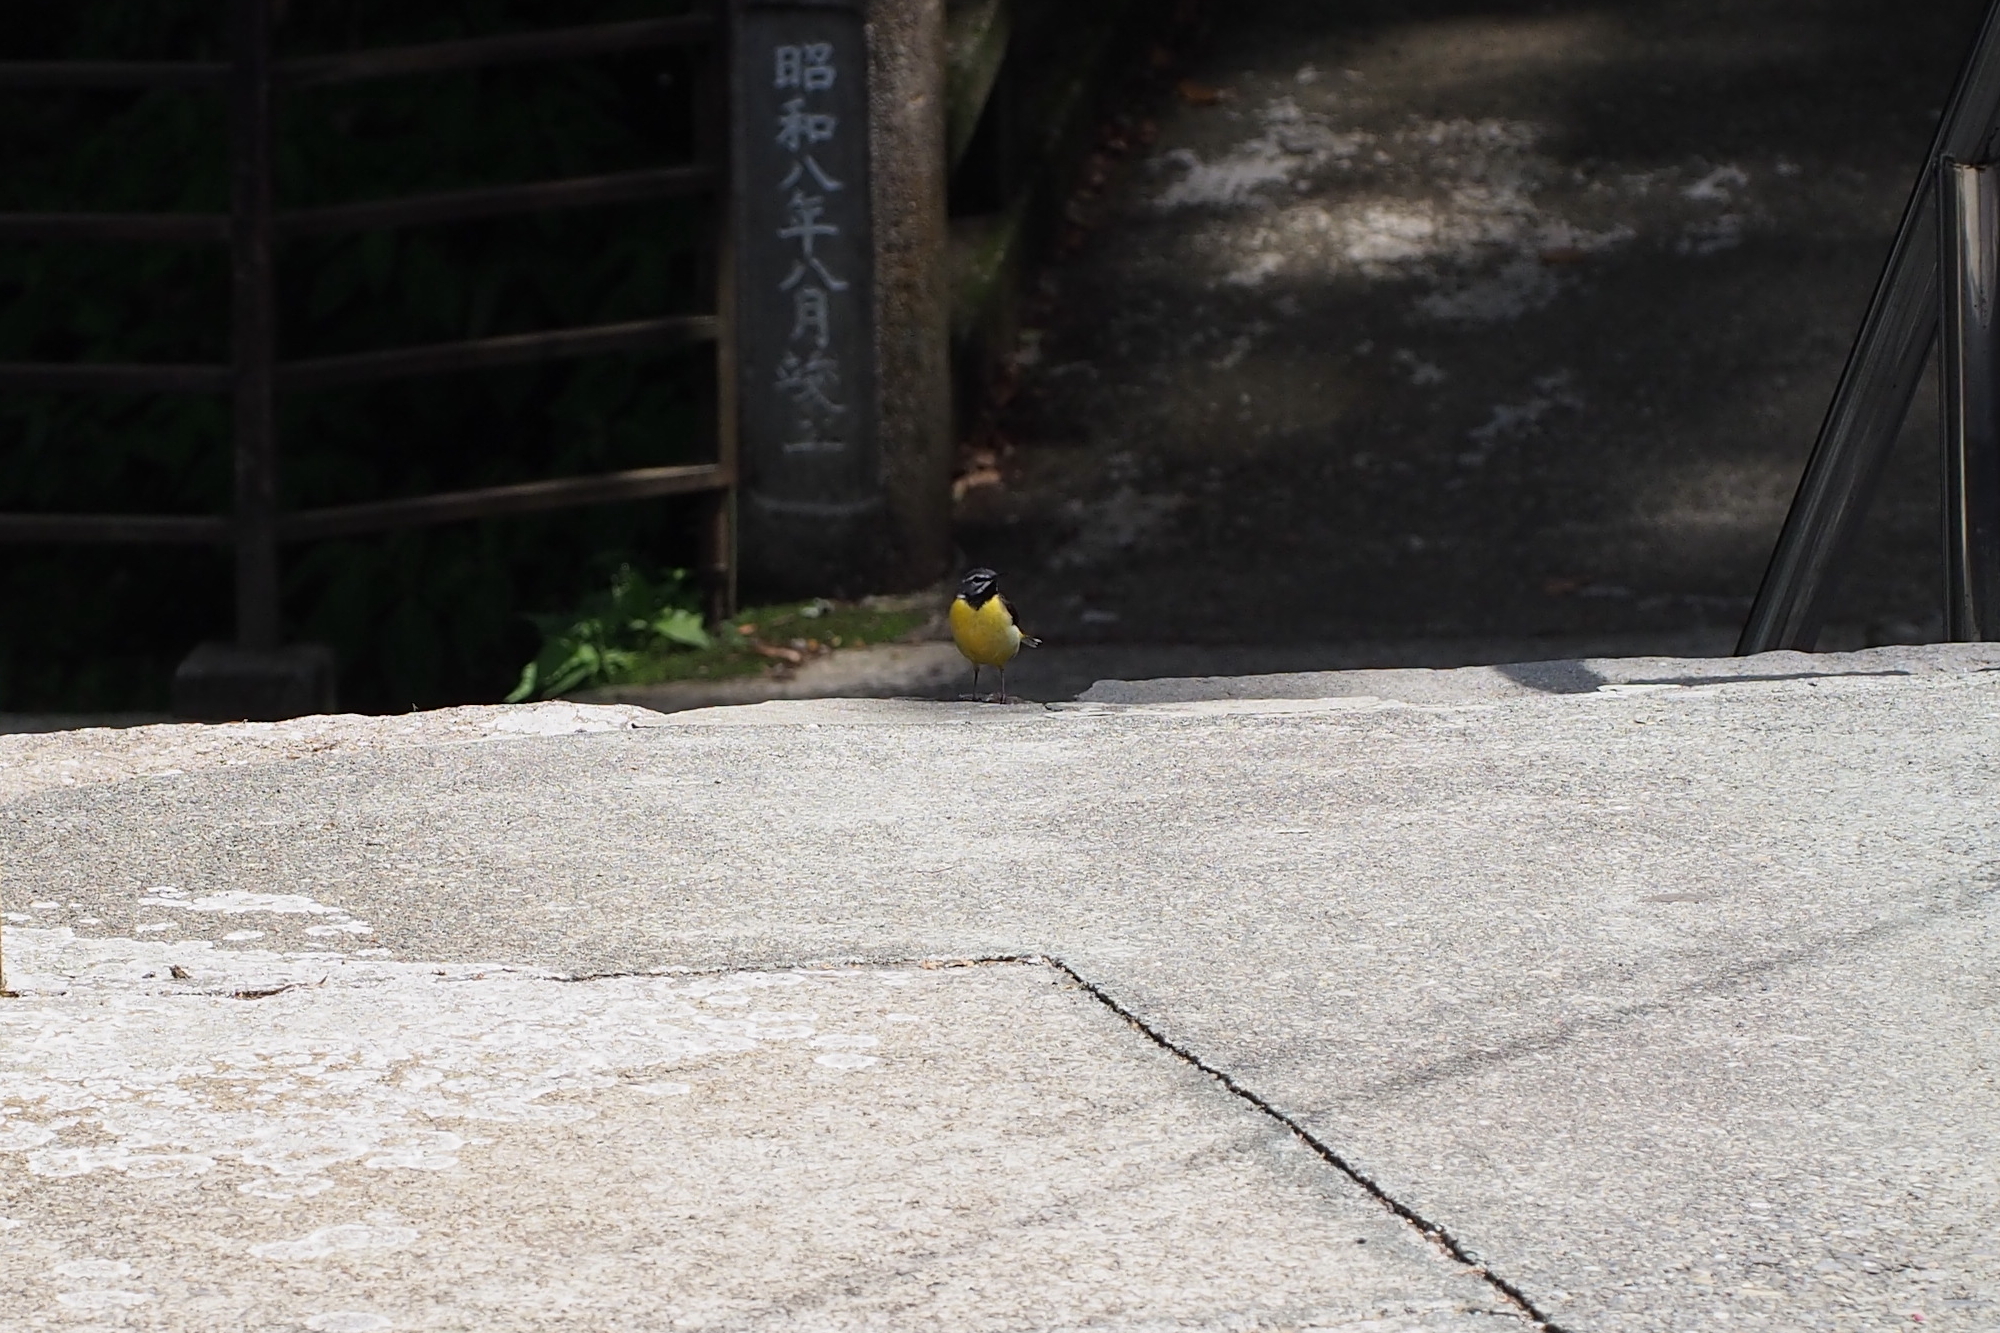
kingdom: Animalia
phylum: Chordata
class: Aves
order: Passeriformes
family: Motacillidae
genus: Motacilla
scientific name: Motacilla cinerea
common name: Grey wagtail
